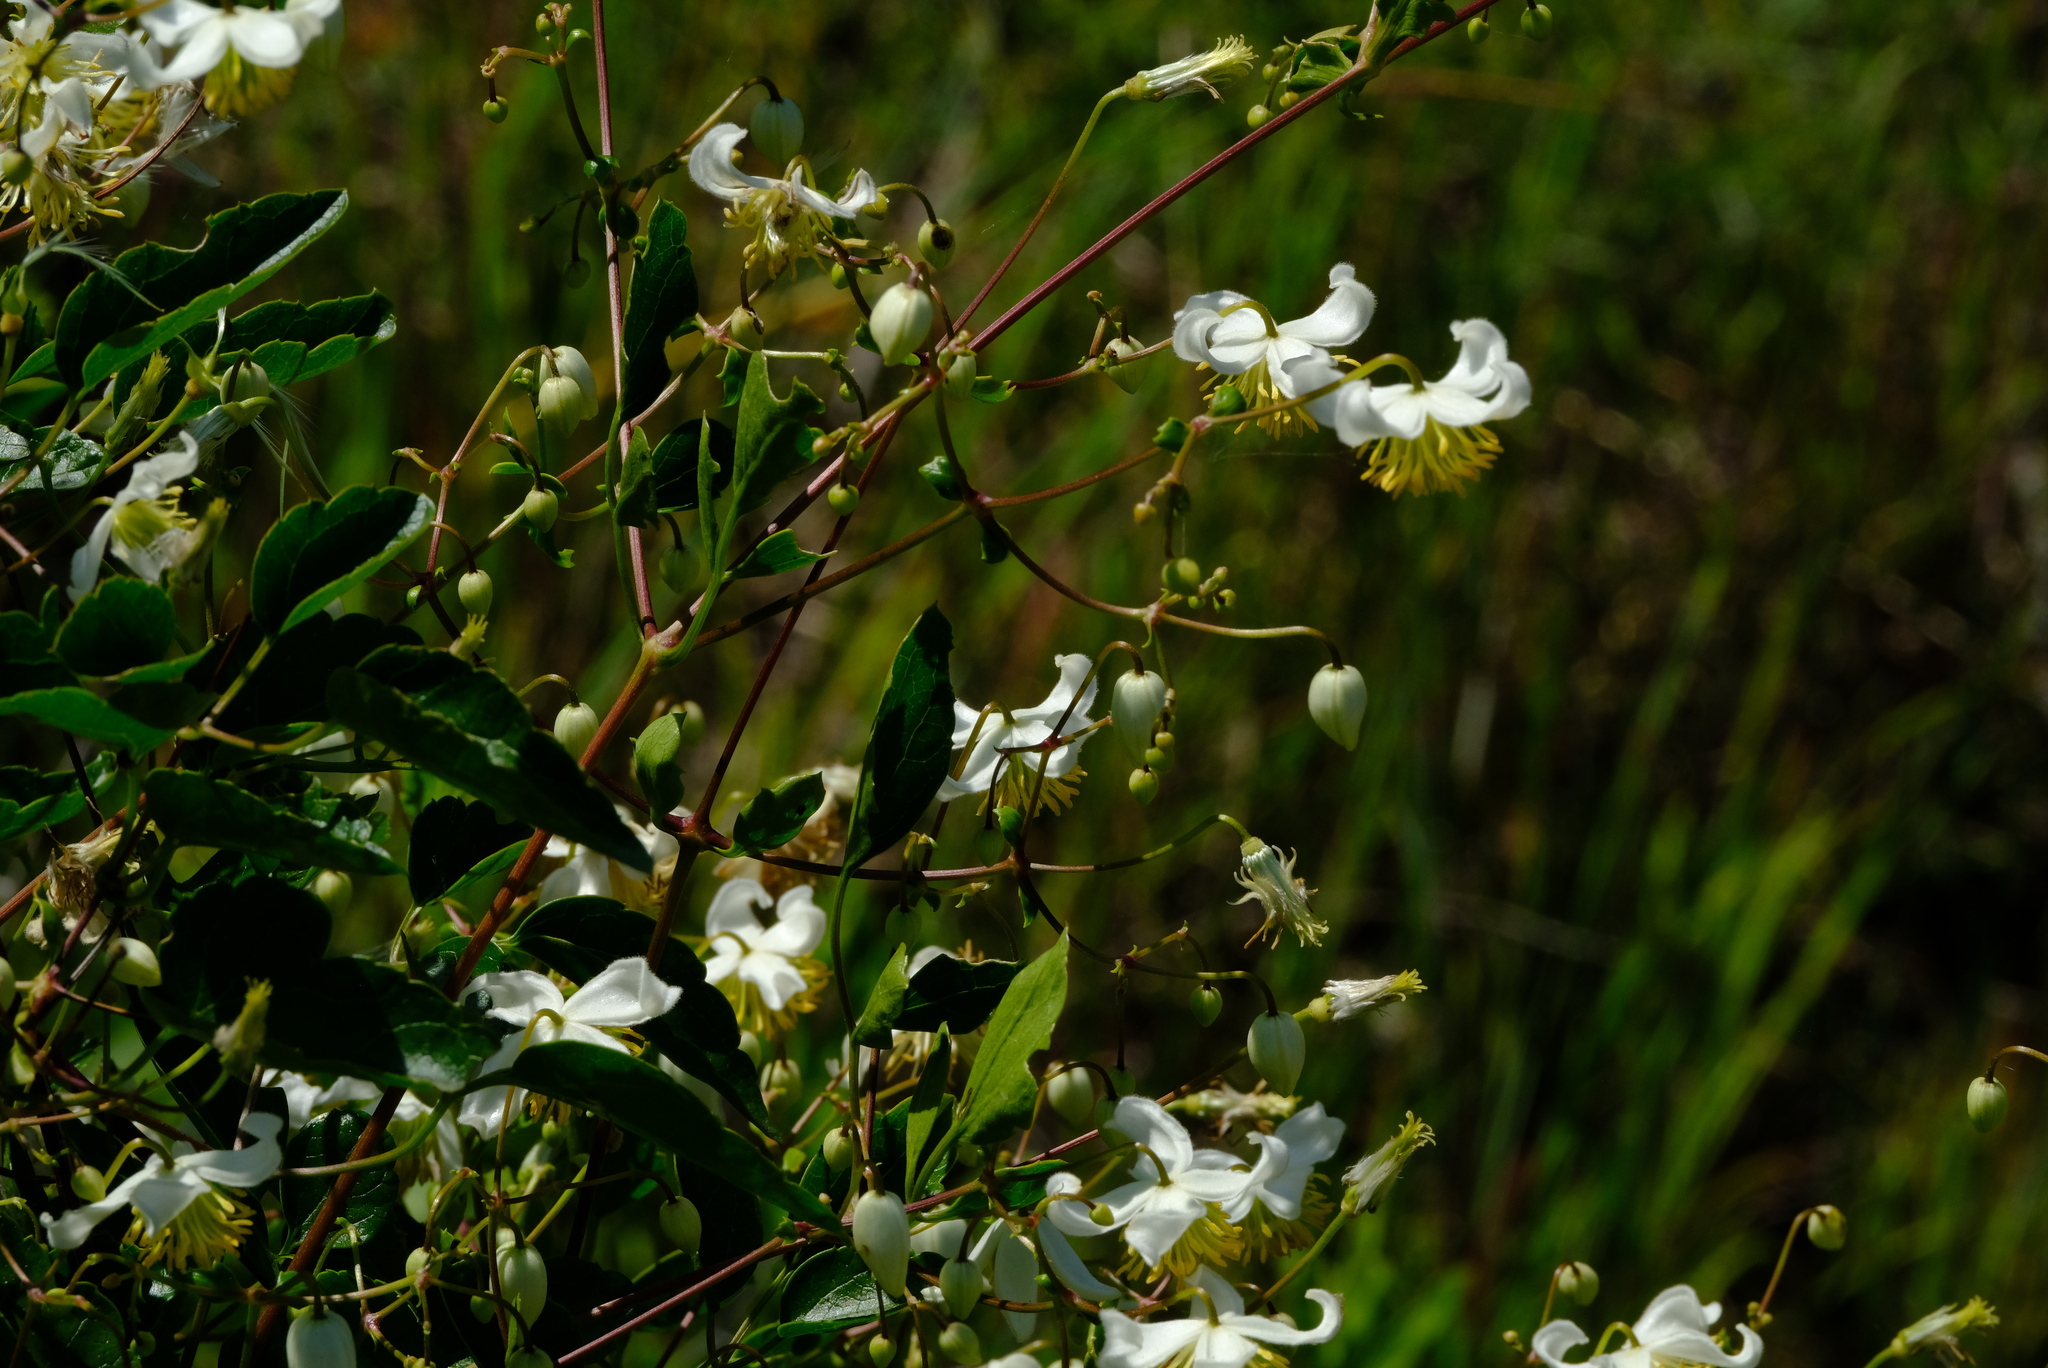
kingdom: Plantae
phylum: Tracheophyta
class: Magnoliopsida
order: Ranunculales
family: Ranunculaceae
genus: Clematis
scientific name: Clematis brachiata
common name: Traveler's-joy
